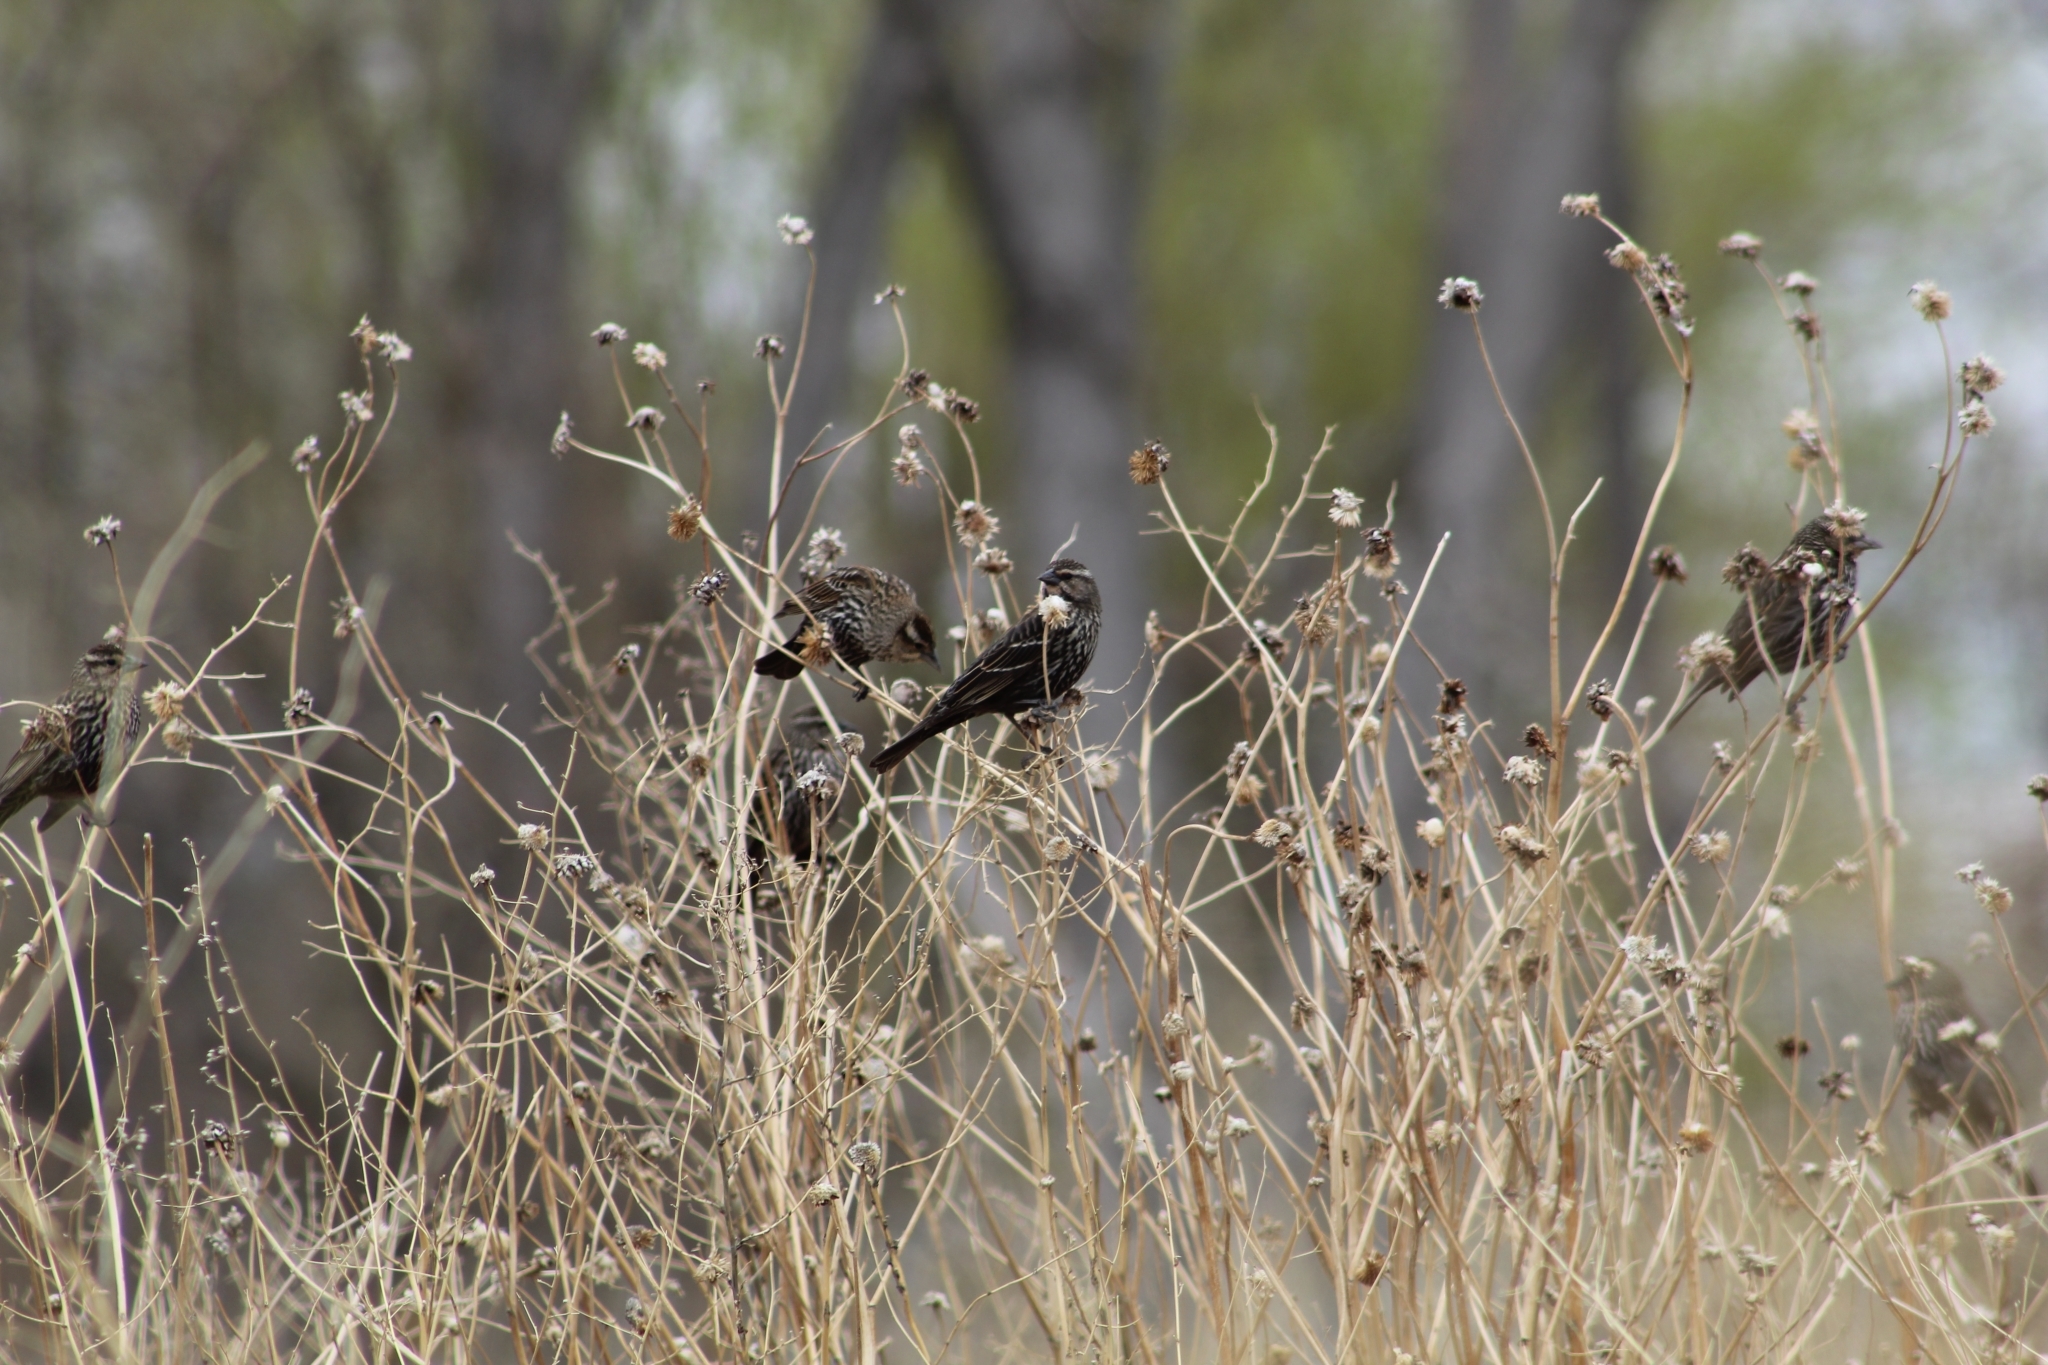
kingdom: Animalia
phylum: Chordata
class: Aves
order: Passeriformes
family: Icteridae
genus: Agelaius
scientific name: Agelaius phoeniceus
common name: Red-winged blackbird
